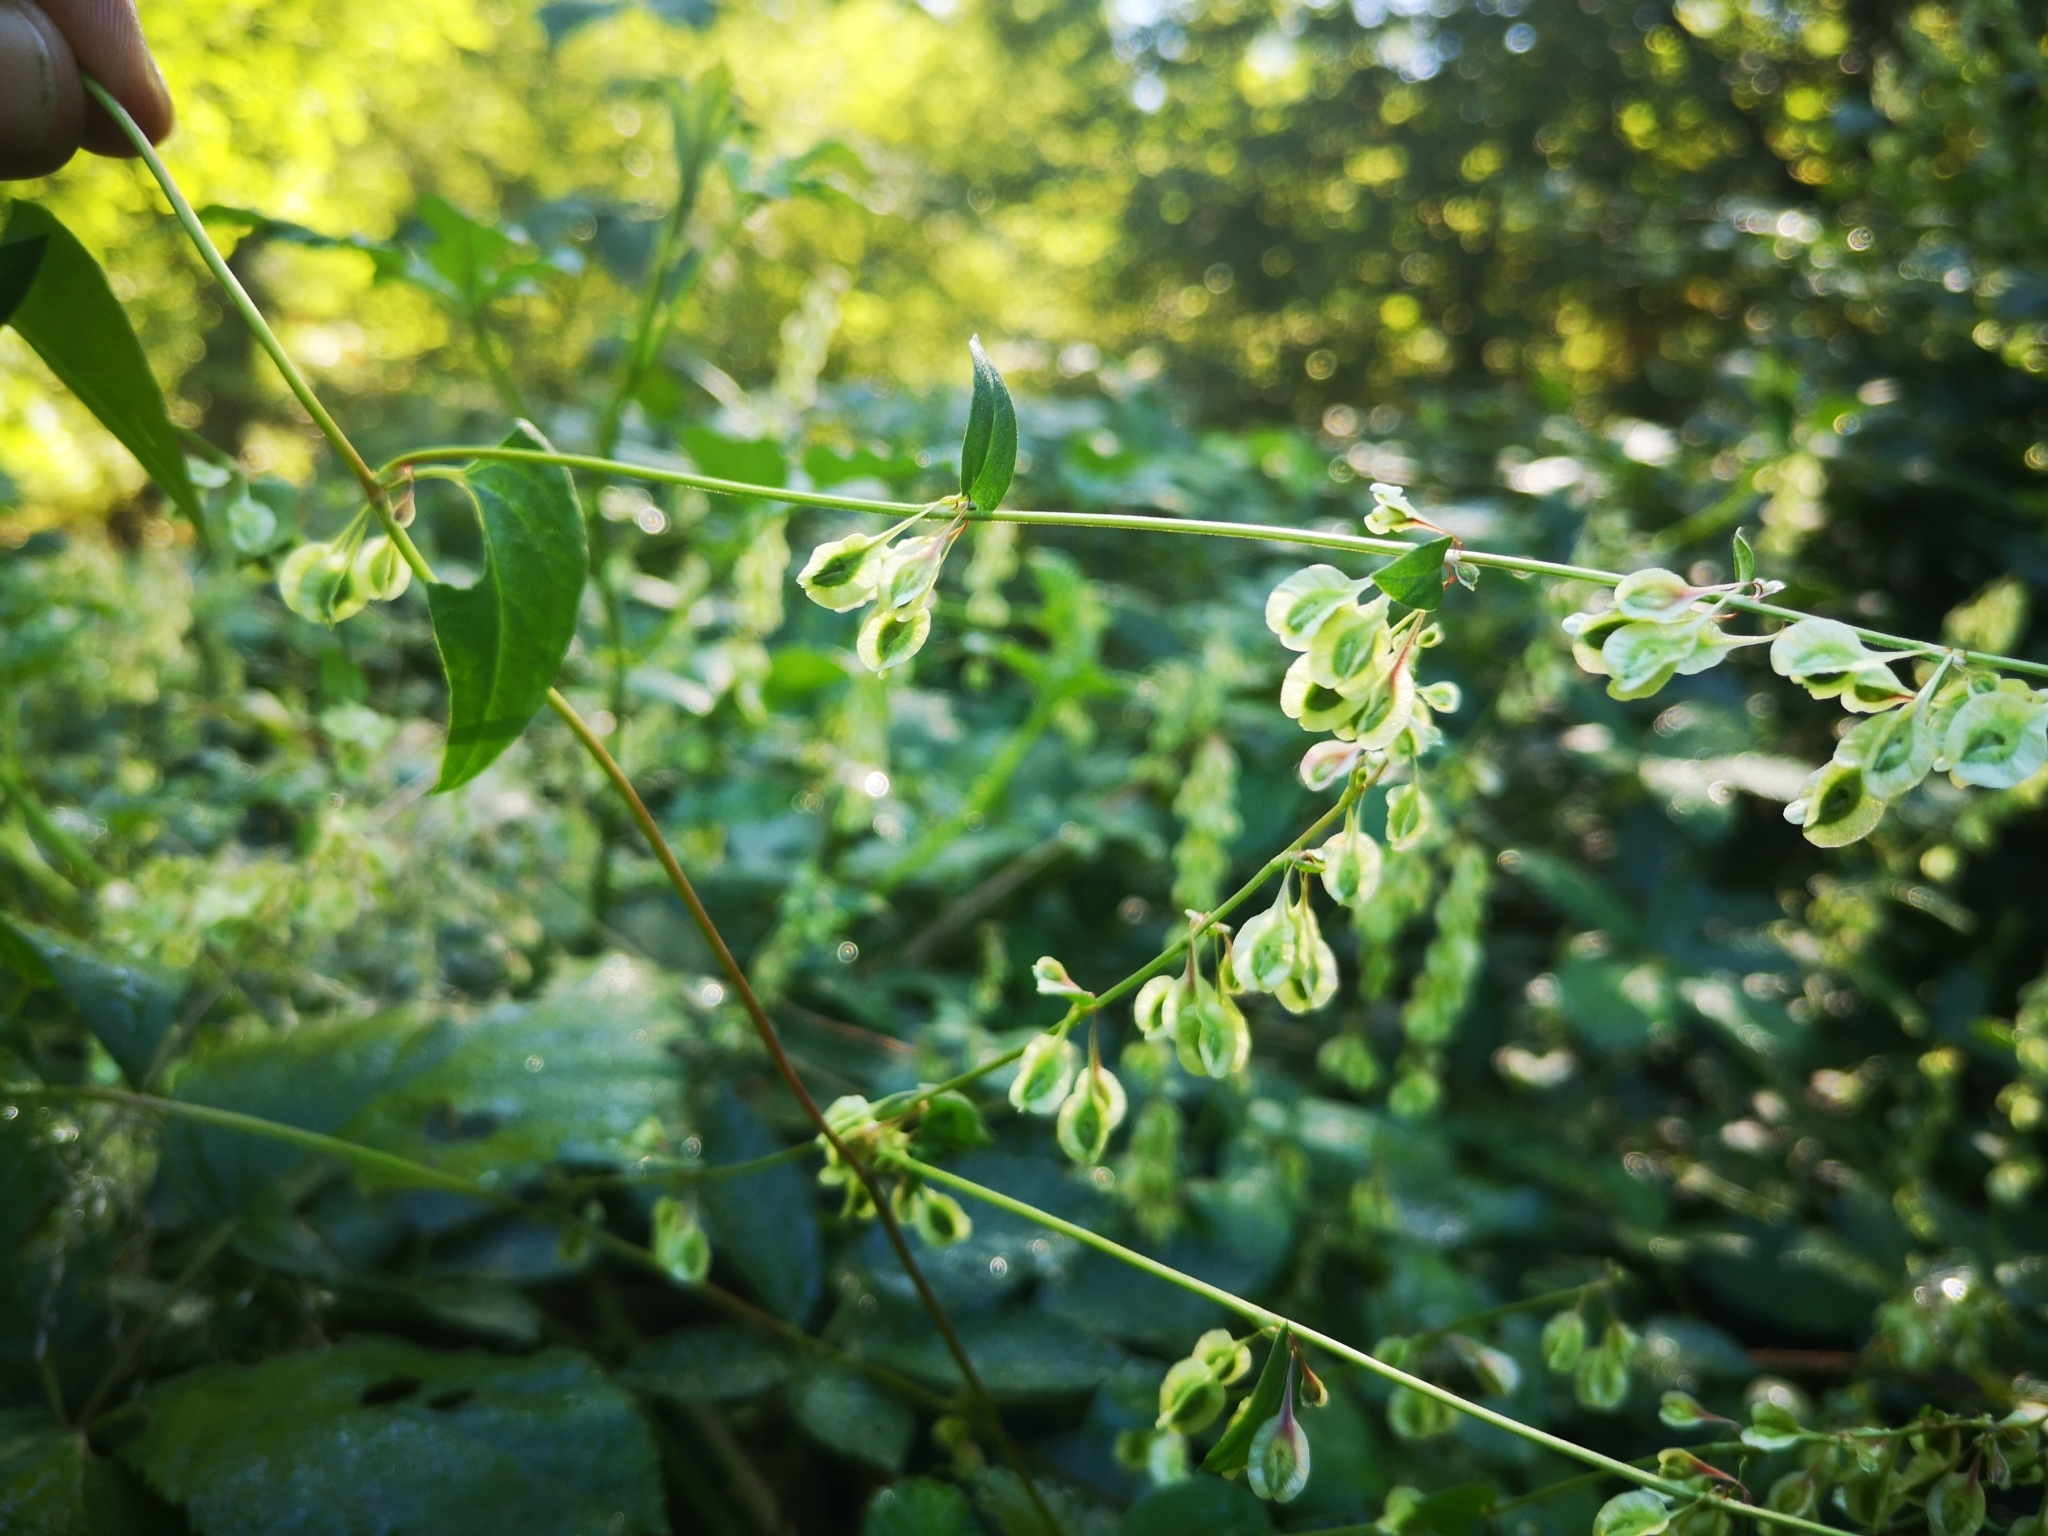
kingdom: Plantae
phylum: Tracheophyta
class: Magnoliopsida
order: Caryophyllales
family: Polygonaceae
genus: Fallopia
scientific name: Fallopia dumetorum
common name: Copse-bindweed
